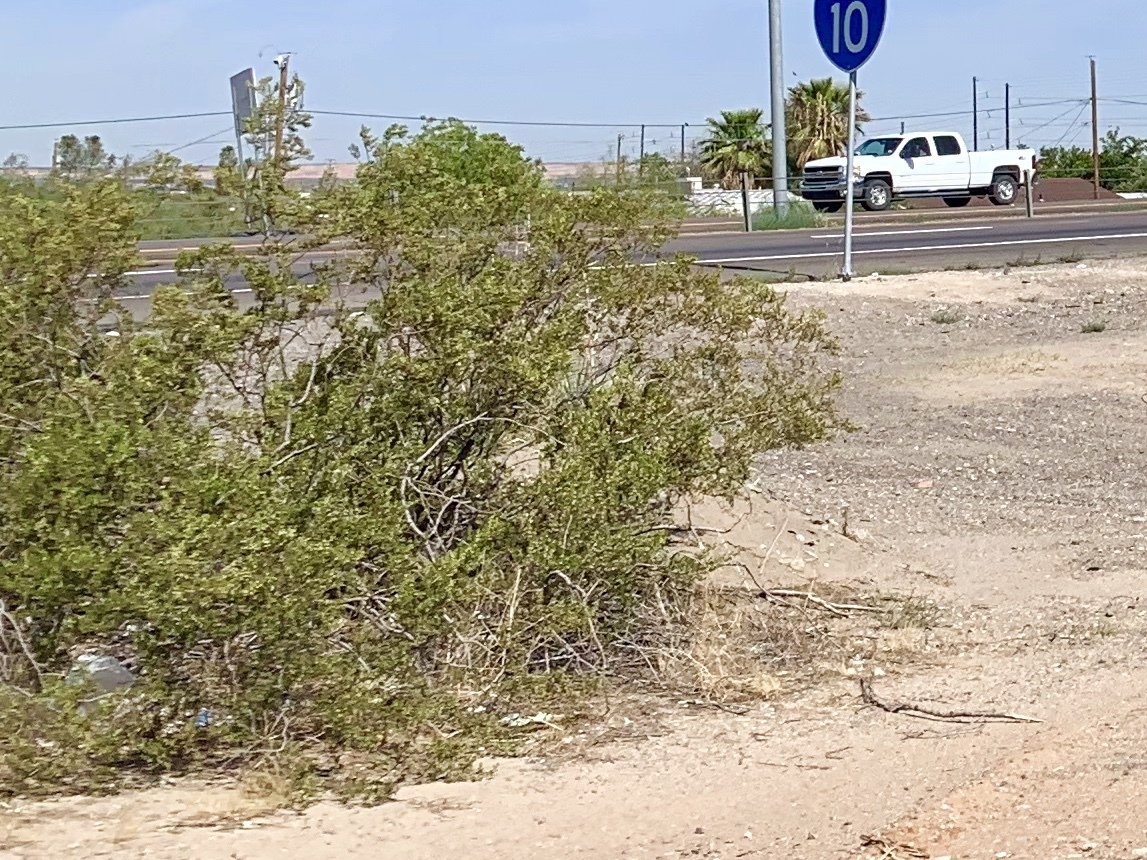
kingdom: Plantae
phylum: Tracheophyta
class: Magnoliopsida
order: Zygophyllales
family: Zygophyllaceae
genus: Larrea
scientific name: Larrea tridentata
